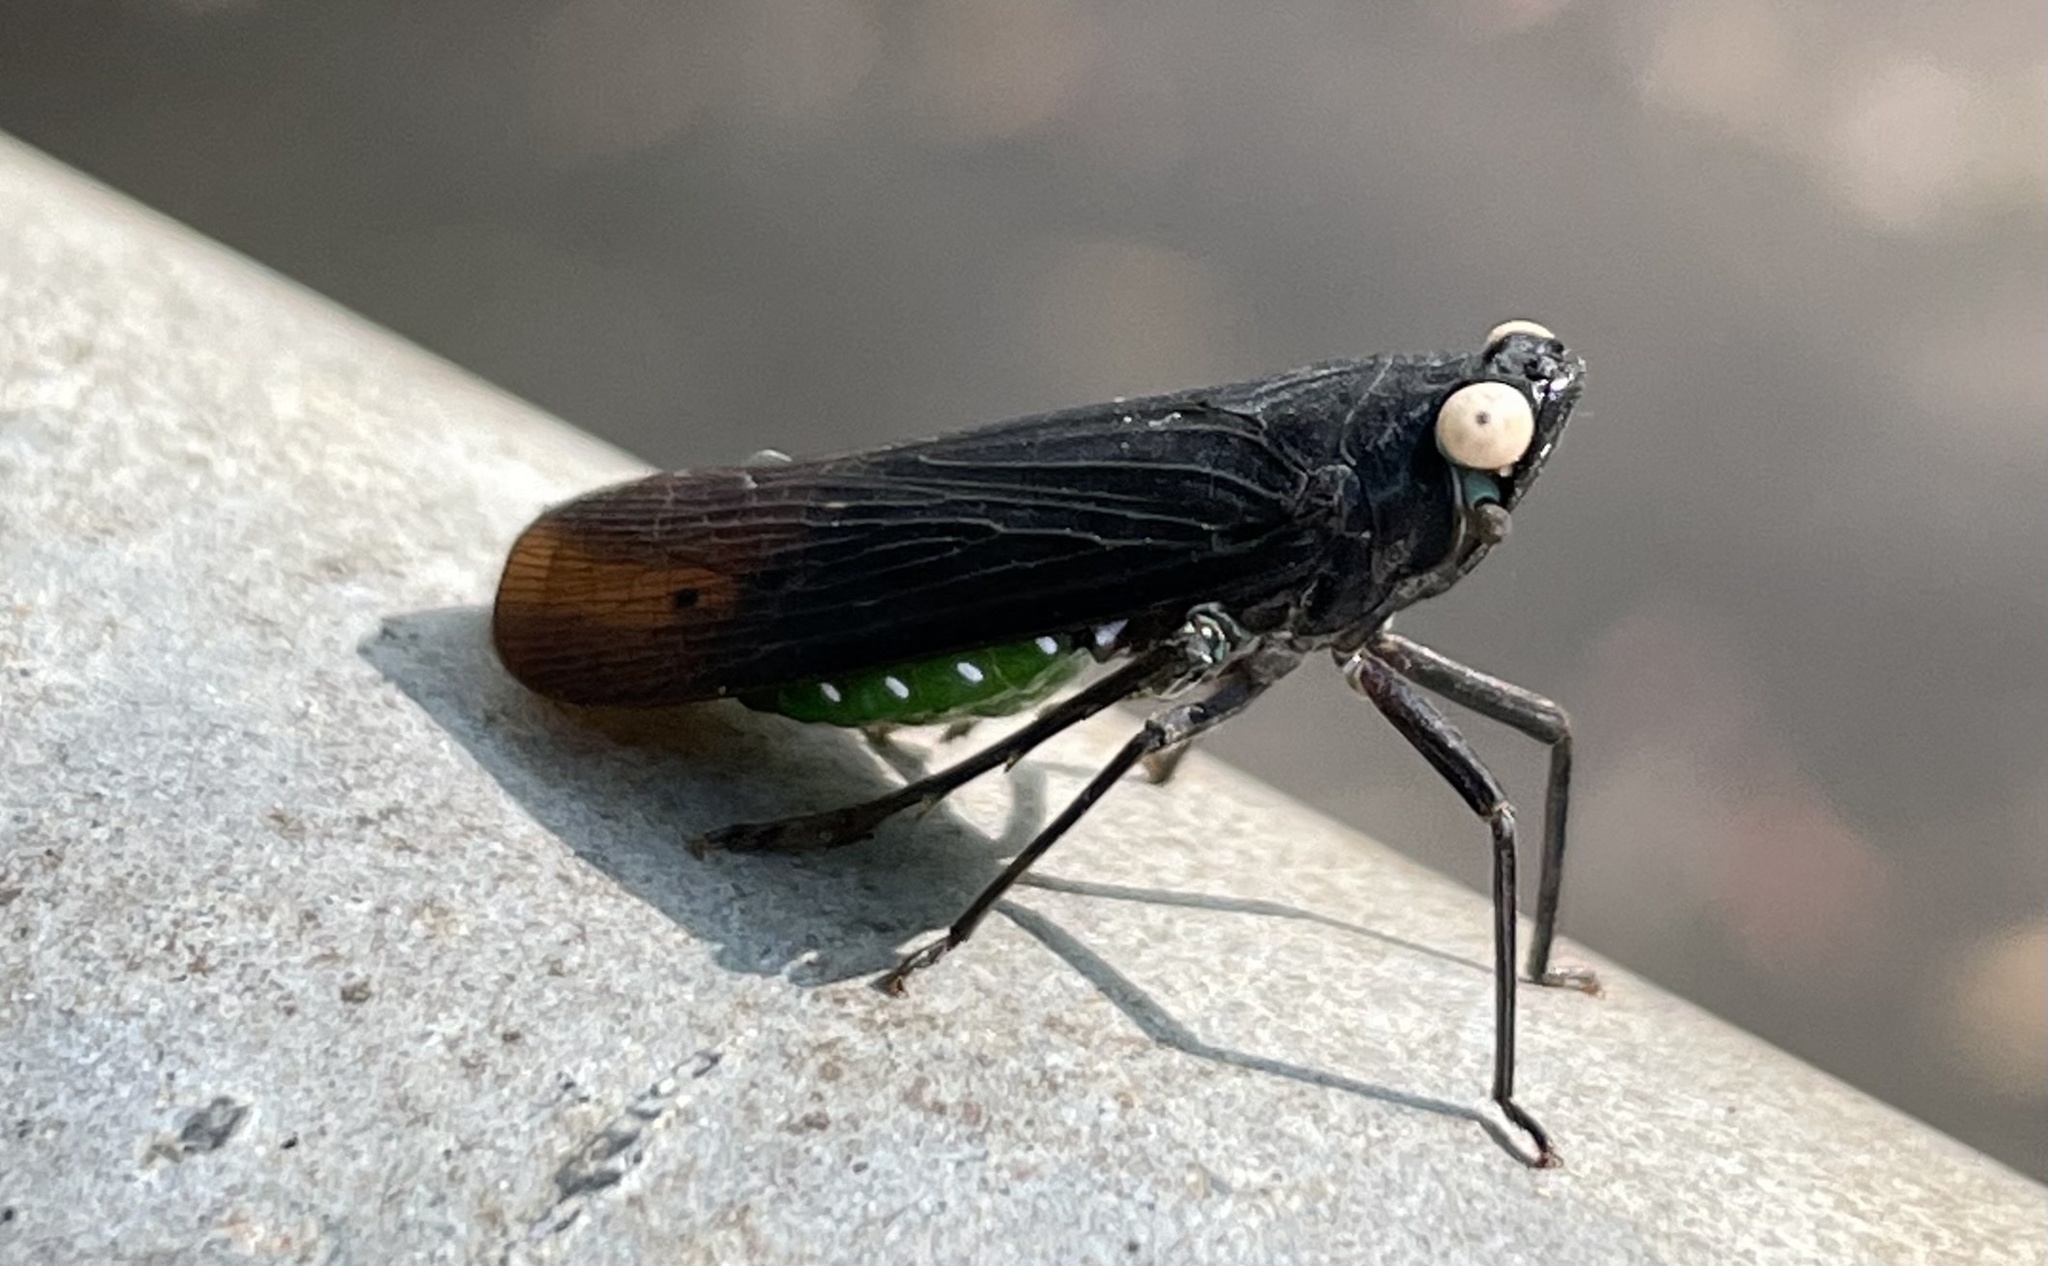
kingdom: Animalia
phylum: Arthropoda
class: Insecta
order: Hemiptera
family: Fulgoridae
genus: Desudaba
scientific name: Desudaba psittacus
